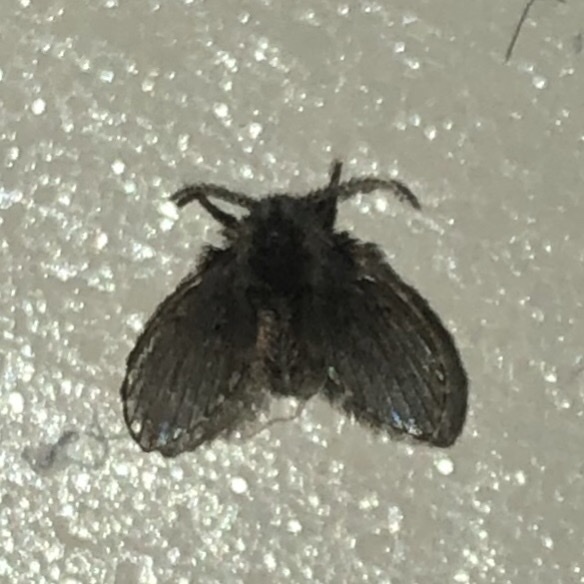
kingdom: Animalia
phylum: Arthropoda
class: Insecta
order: Diptera
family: Psychodidae
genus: Clogmia
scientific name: Clogmia albipunctatus
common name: White-spotted moth fly
